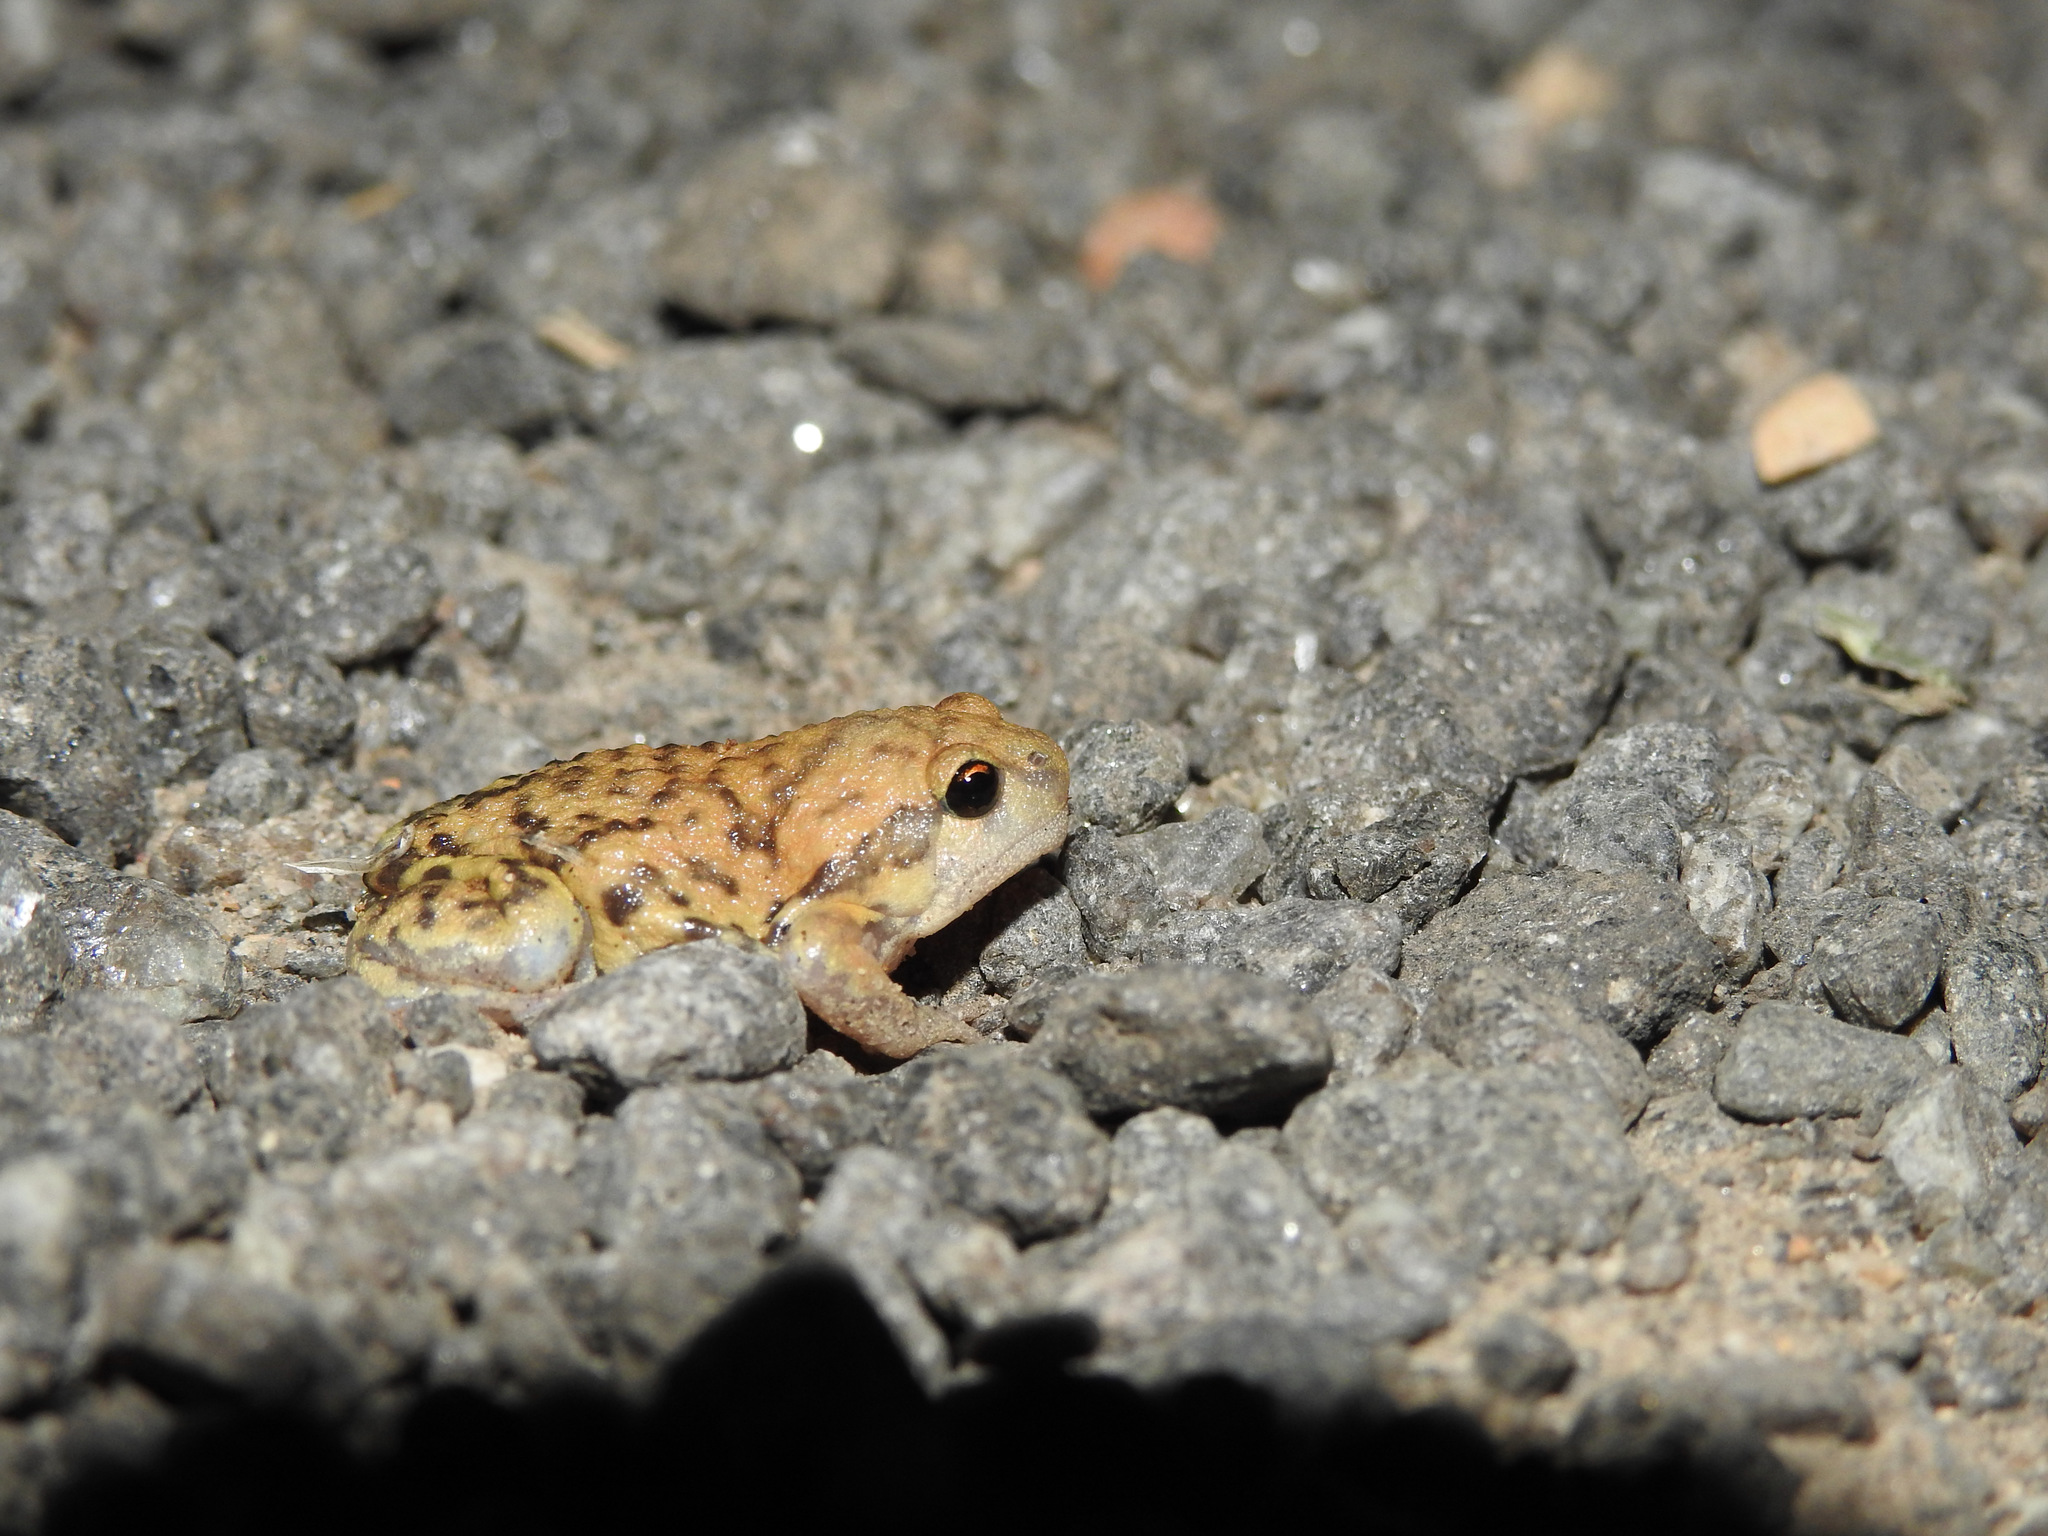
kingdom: Animalia
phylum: Chordata
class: Amphibia
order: Anura
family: Microhylidae
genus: Uperodon
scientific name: Uperodon systoma
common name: Balloon frog
